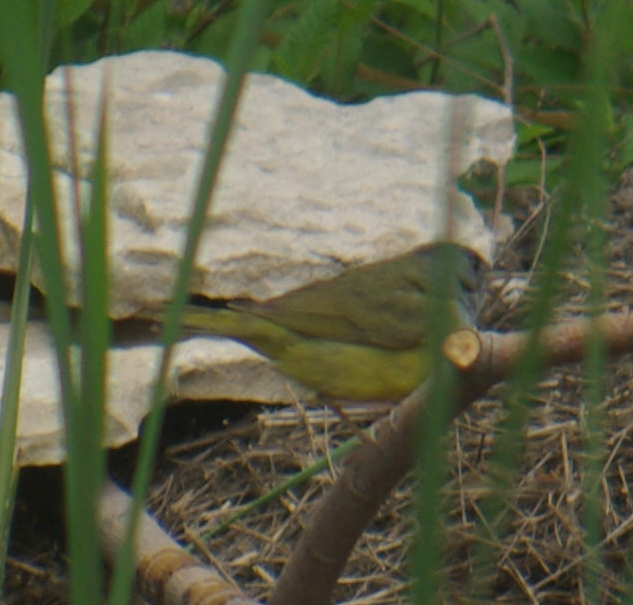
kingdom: Animalia
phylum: Chordata
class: Aves
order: Passeriformes
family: Parulidae
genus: Geothlypis
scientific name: Geothlypis philadelphia
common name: Mourning warbler
